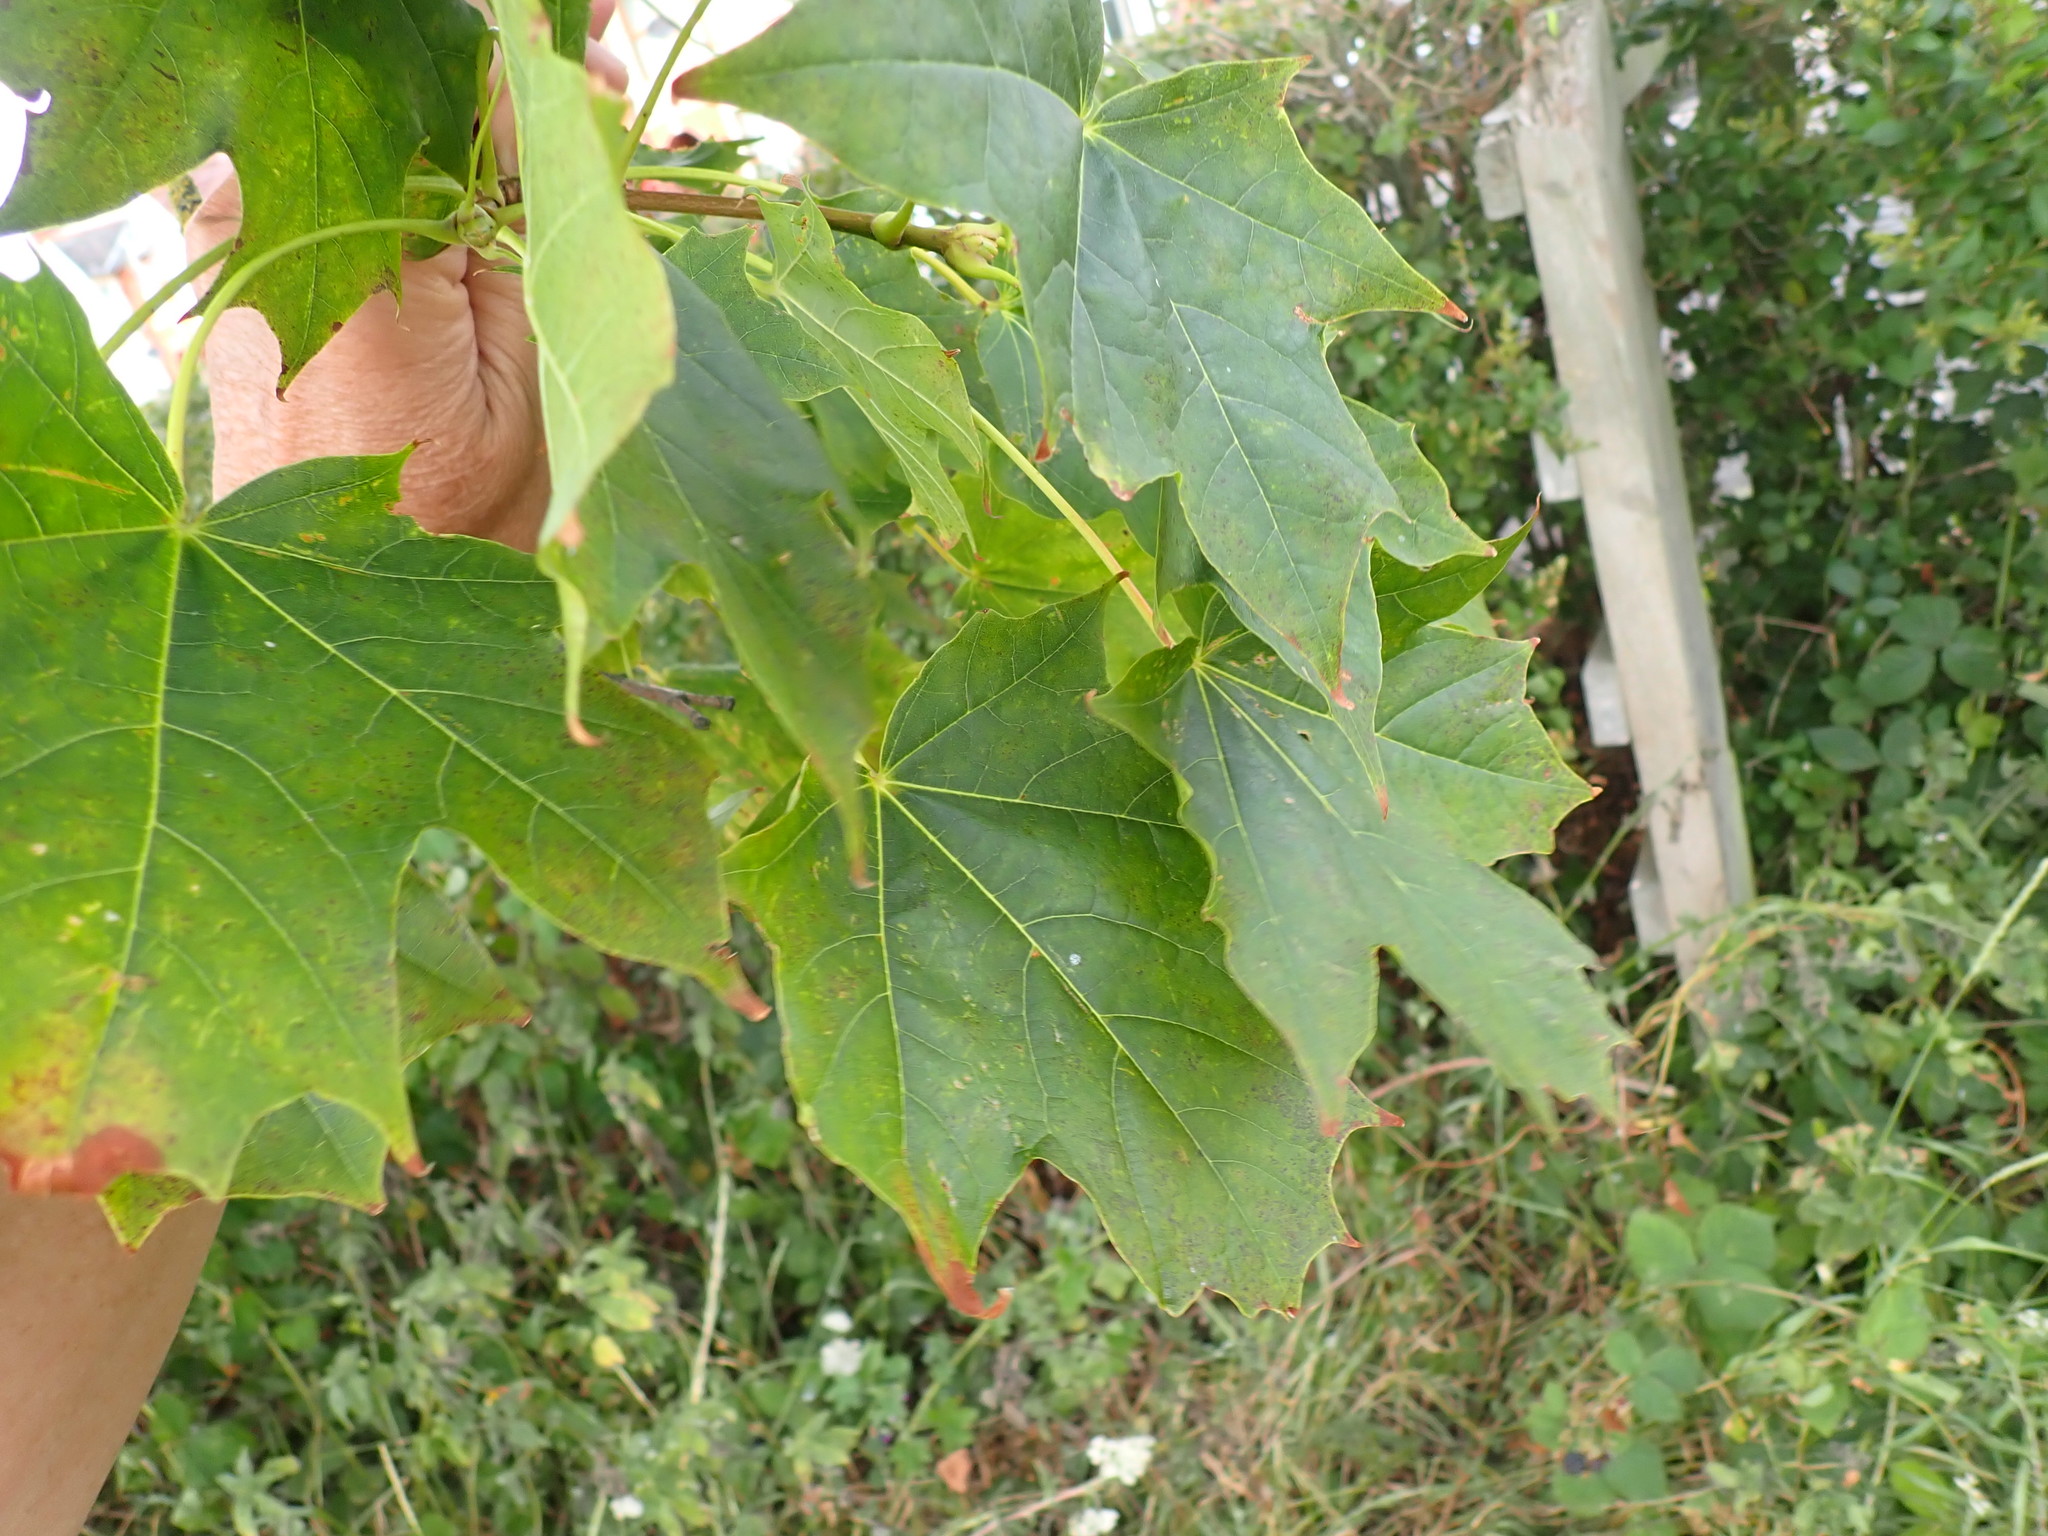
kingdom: Plantae
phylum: Tracheophyta
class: Magnoliopsida
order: Sapindales
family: Sapindaceae
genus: Acer
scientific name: Acer platanoides
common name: Norway maple
